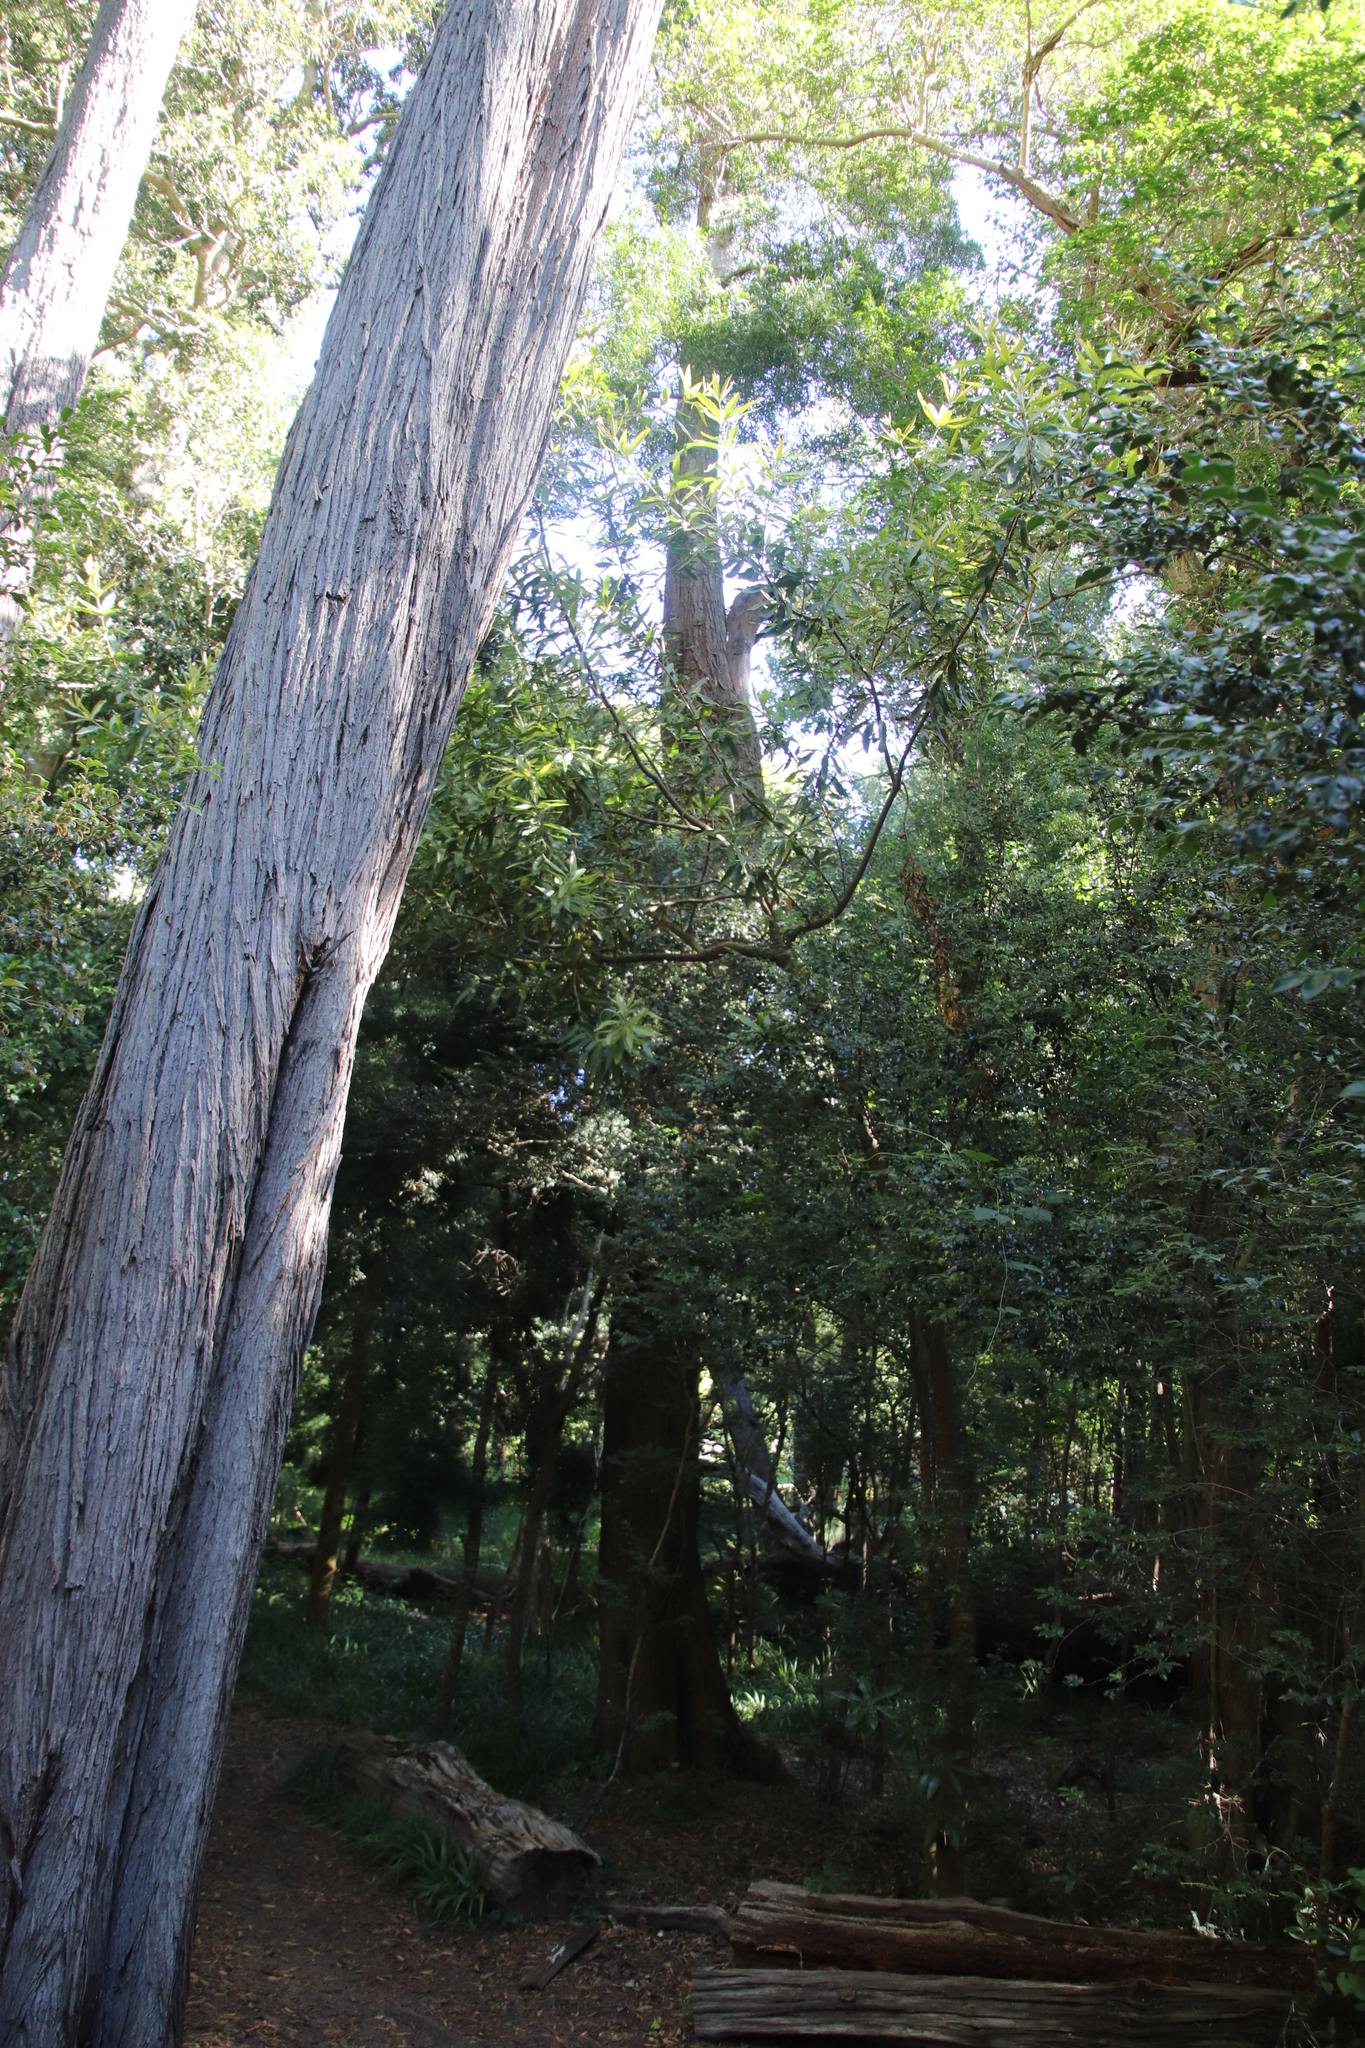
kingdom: Plantae
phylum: Tracheophyta
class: Magnoliopsida
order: Proteales
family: Proteaceae
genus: Brabejum
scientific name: Brabejum stellatifolium
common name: Wild almond
